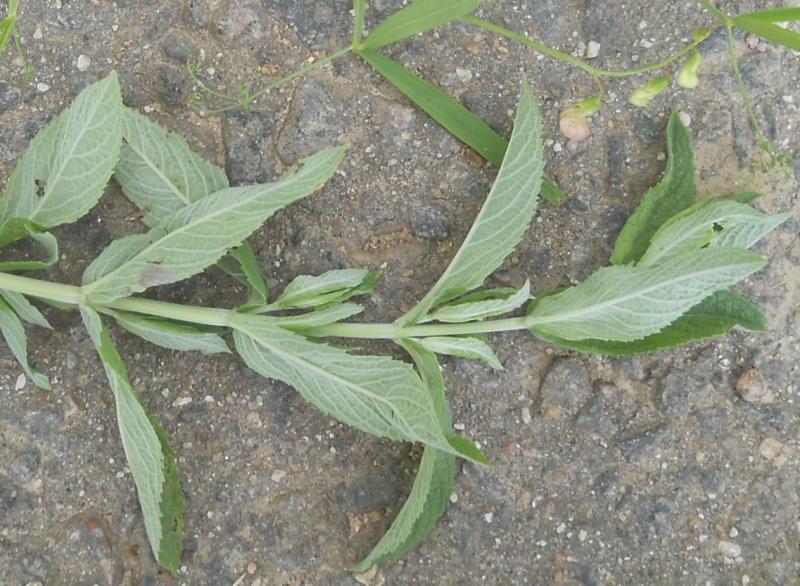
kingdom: Plantae
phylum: Tracheophyta
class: Magnoliopsida
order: Lamiales
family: Lamiaceae
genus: Mentha
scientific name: Mentha longifolia
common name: Horse mint
